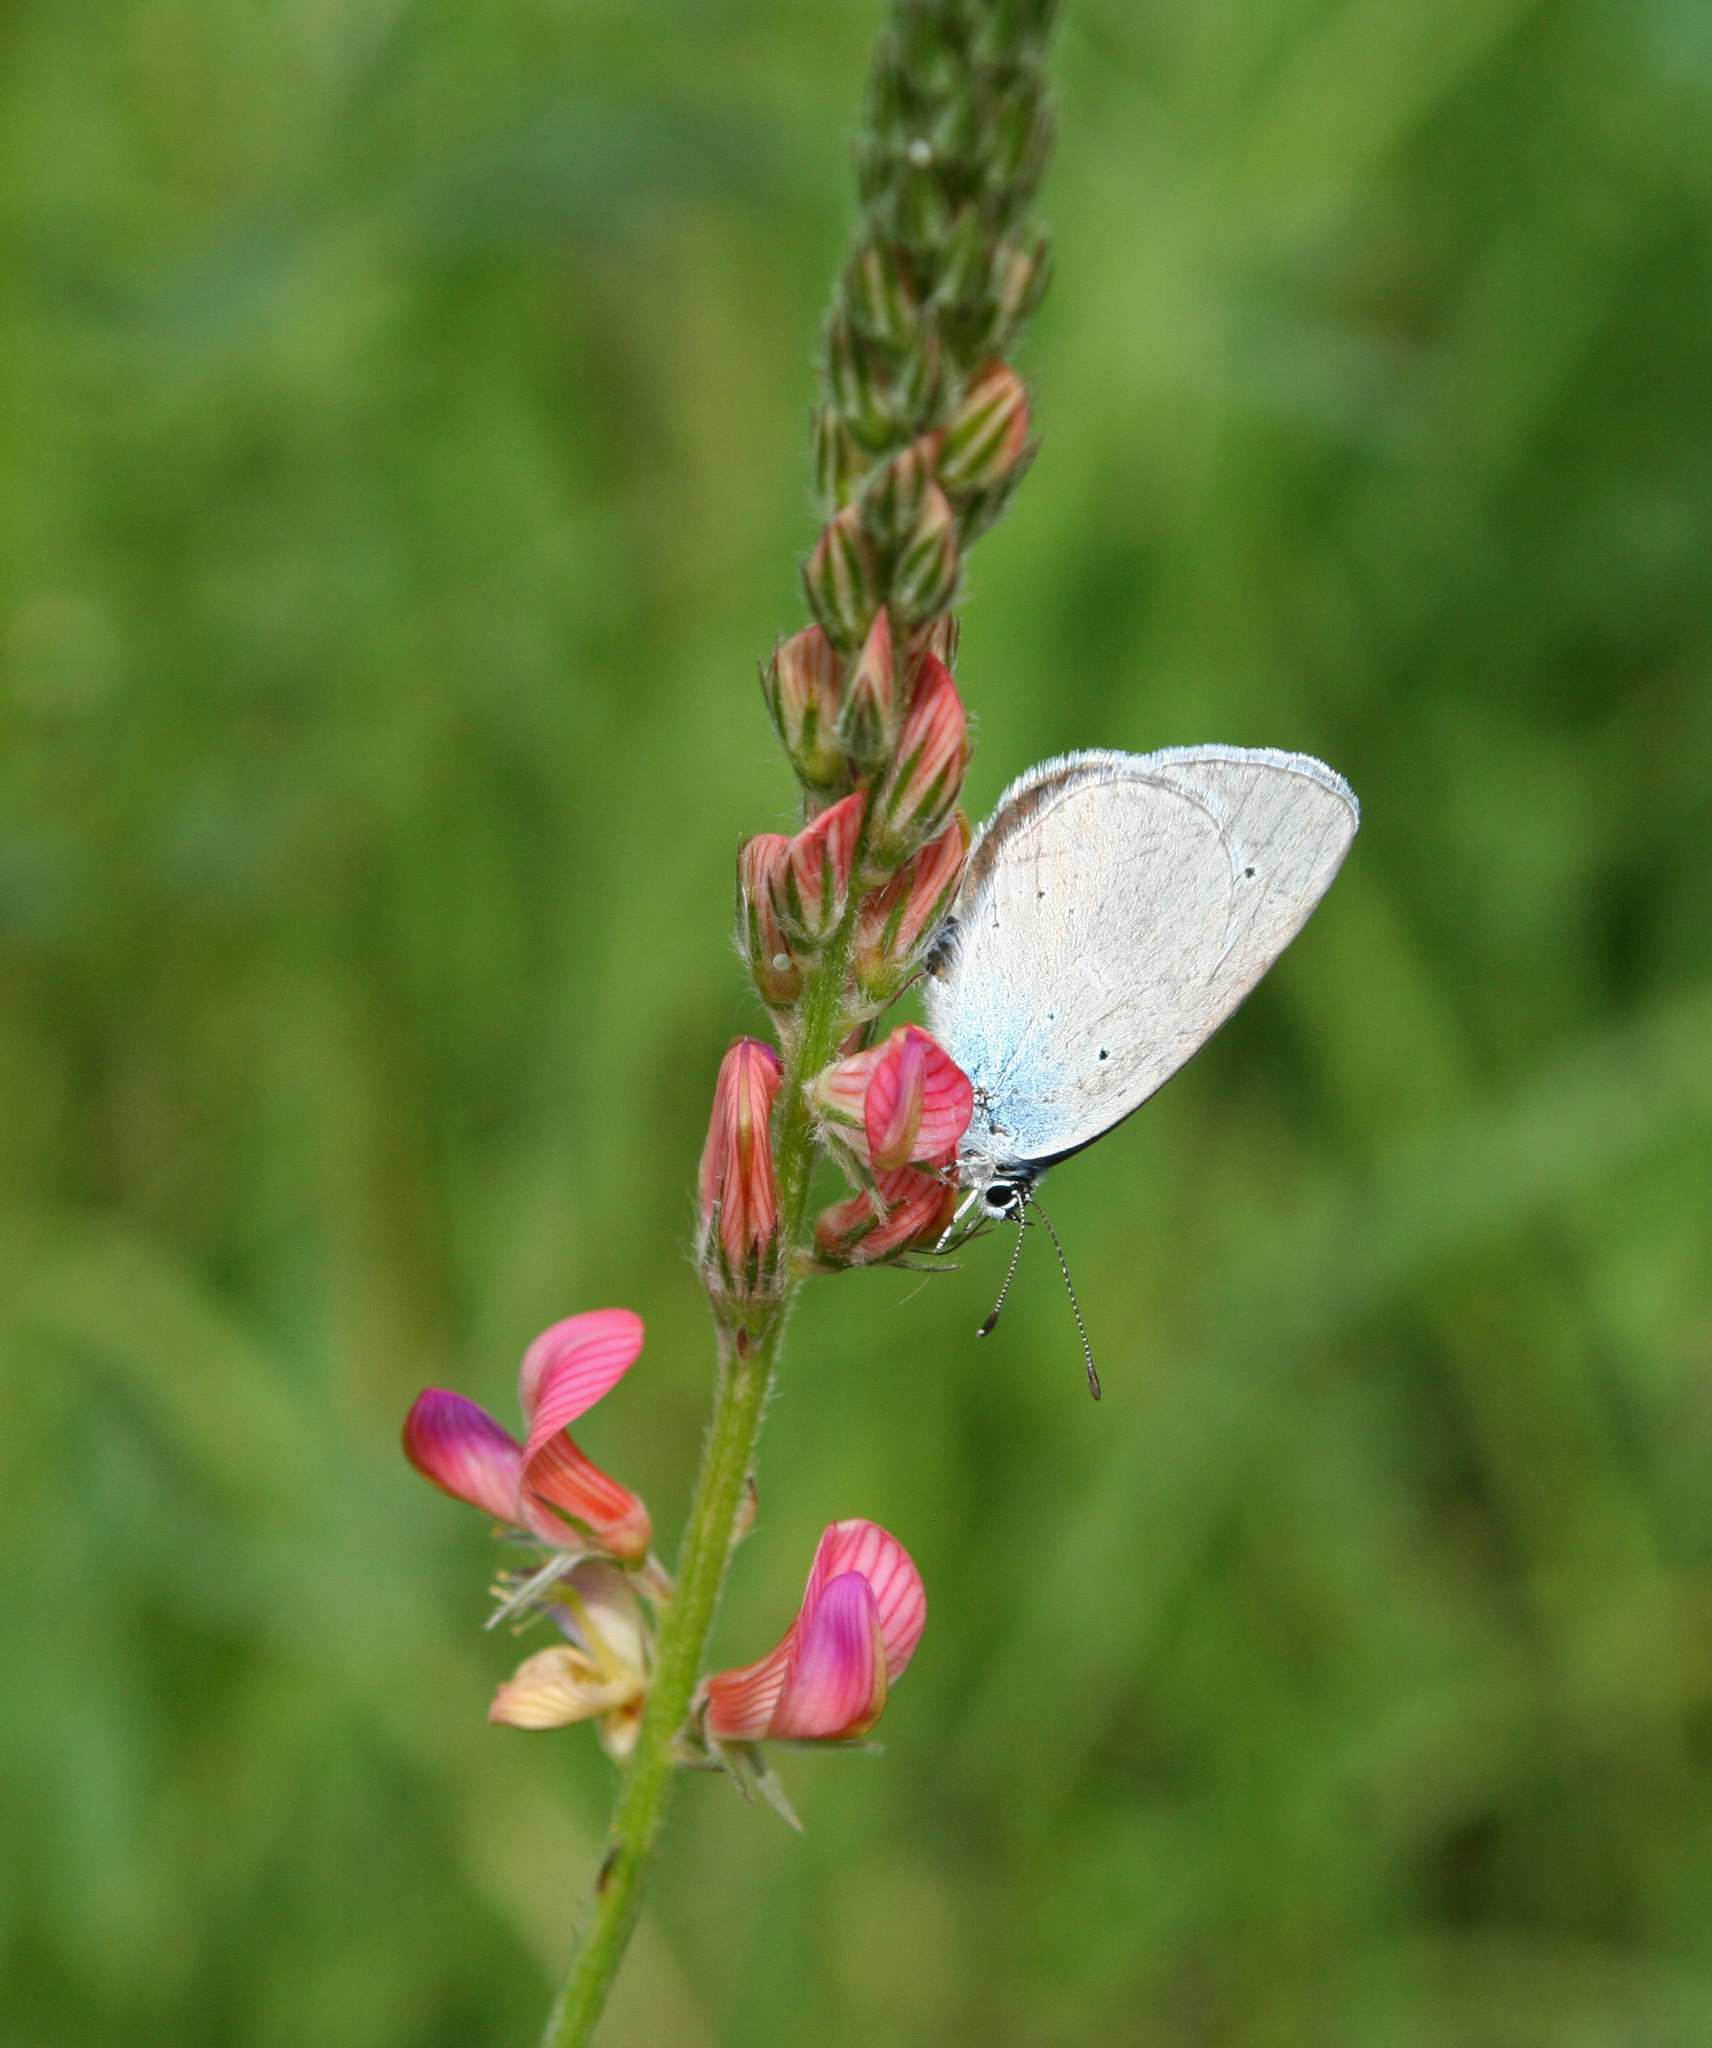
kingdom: Animalia
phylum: Arthropoda
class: Insecta
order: Lepidoptera
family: Lycaenidae
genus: Everes
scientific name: Everes sebrus
